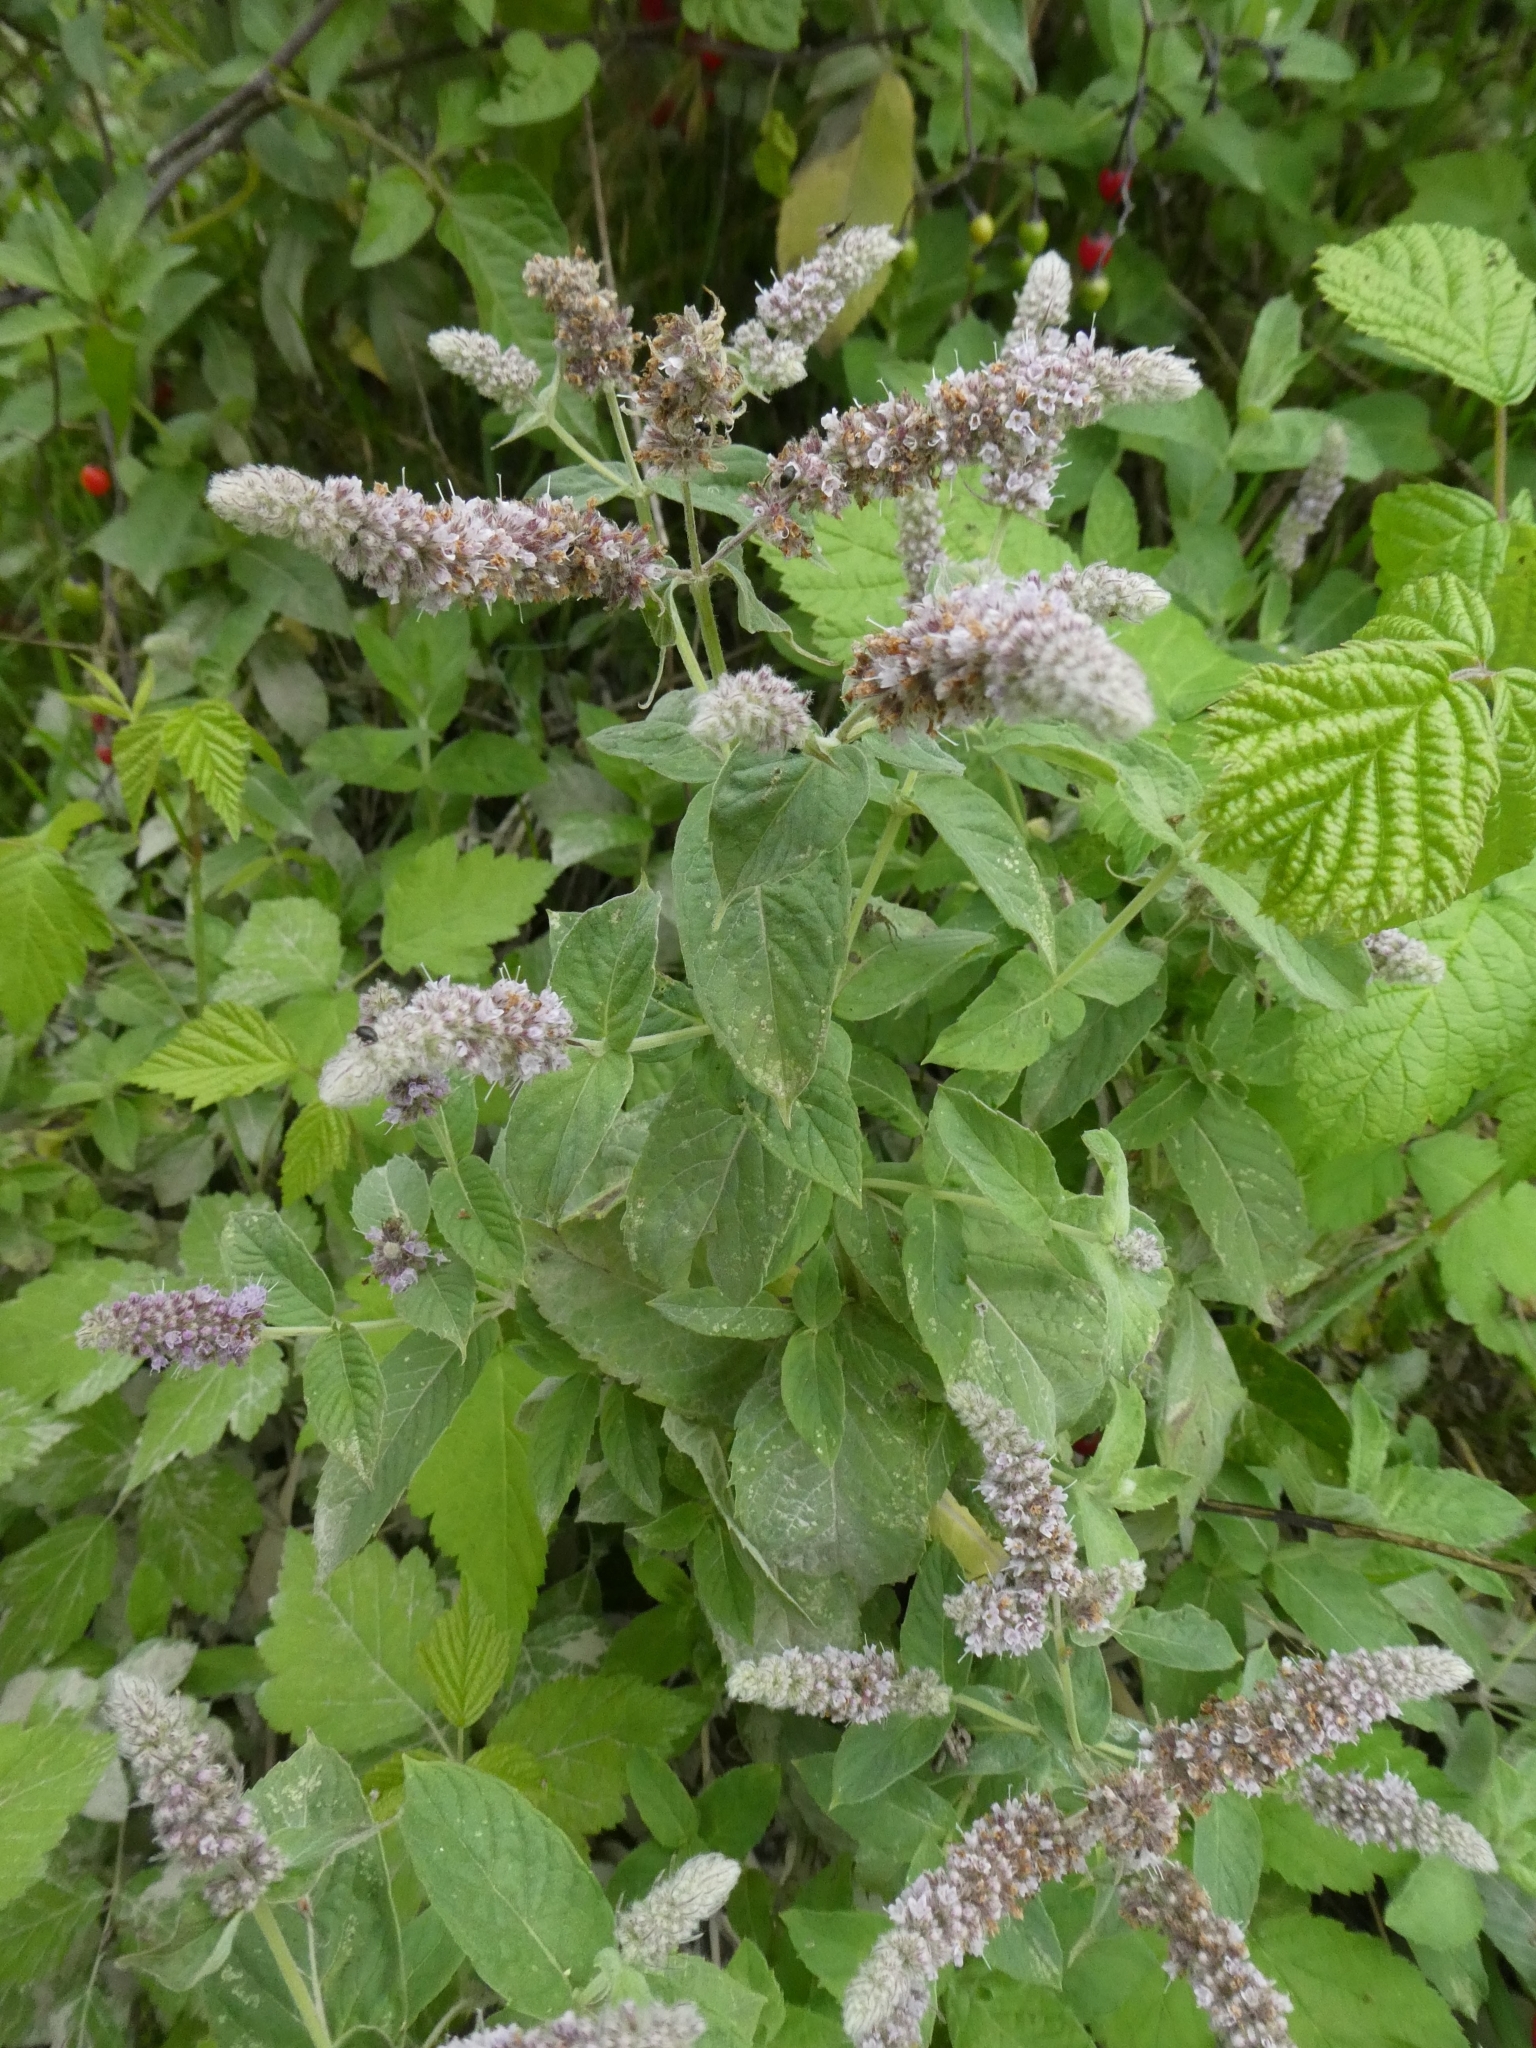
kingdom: Plantae
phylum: Tracheophyta
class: Magnoliopsida
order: Lamiales
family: Lamiaceae
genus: Mentha
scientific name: Mentha longifolia
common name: Horse mint
